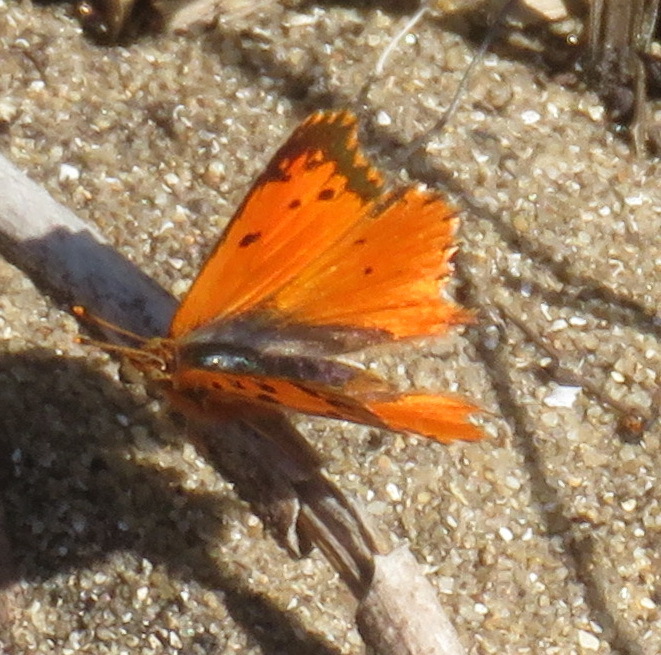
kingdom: Animalia
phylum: Arthropoda
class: Insecta
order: Lepidoptera
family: Lycaenidae
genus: Chrysoritis
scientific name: Chrysoritis
